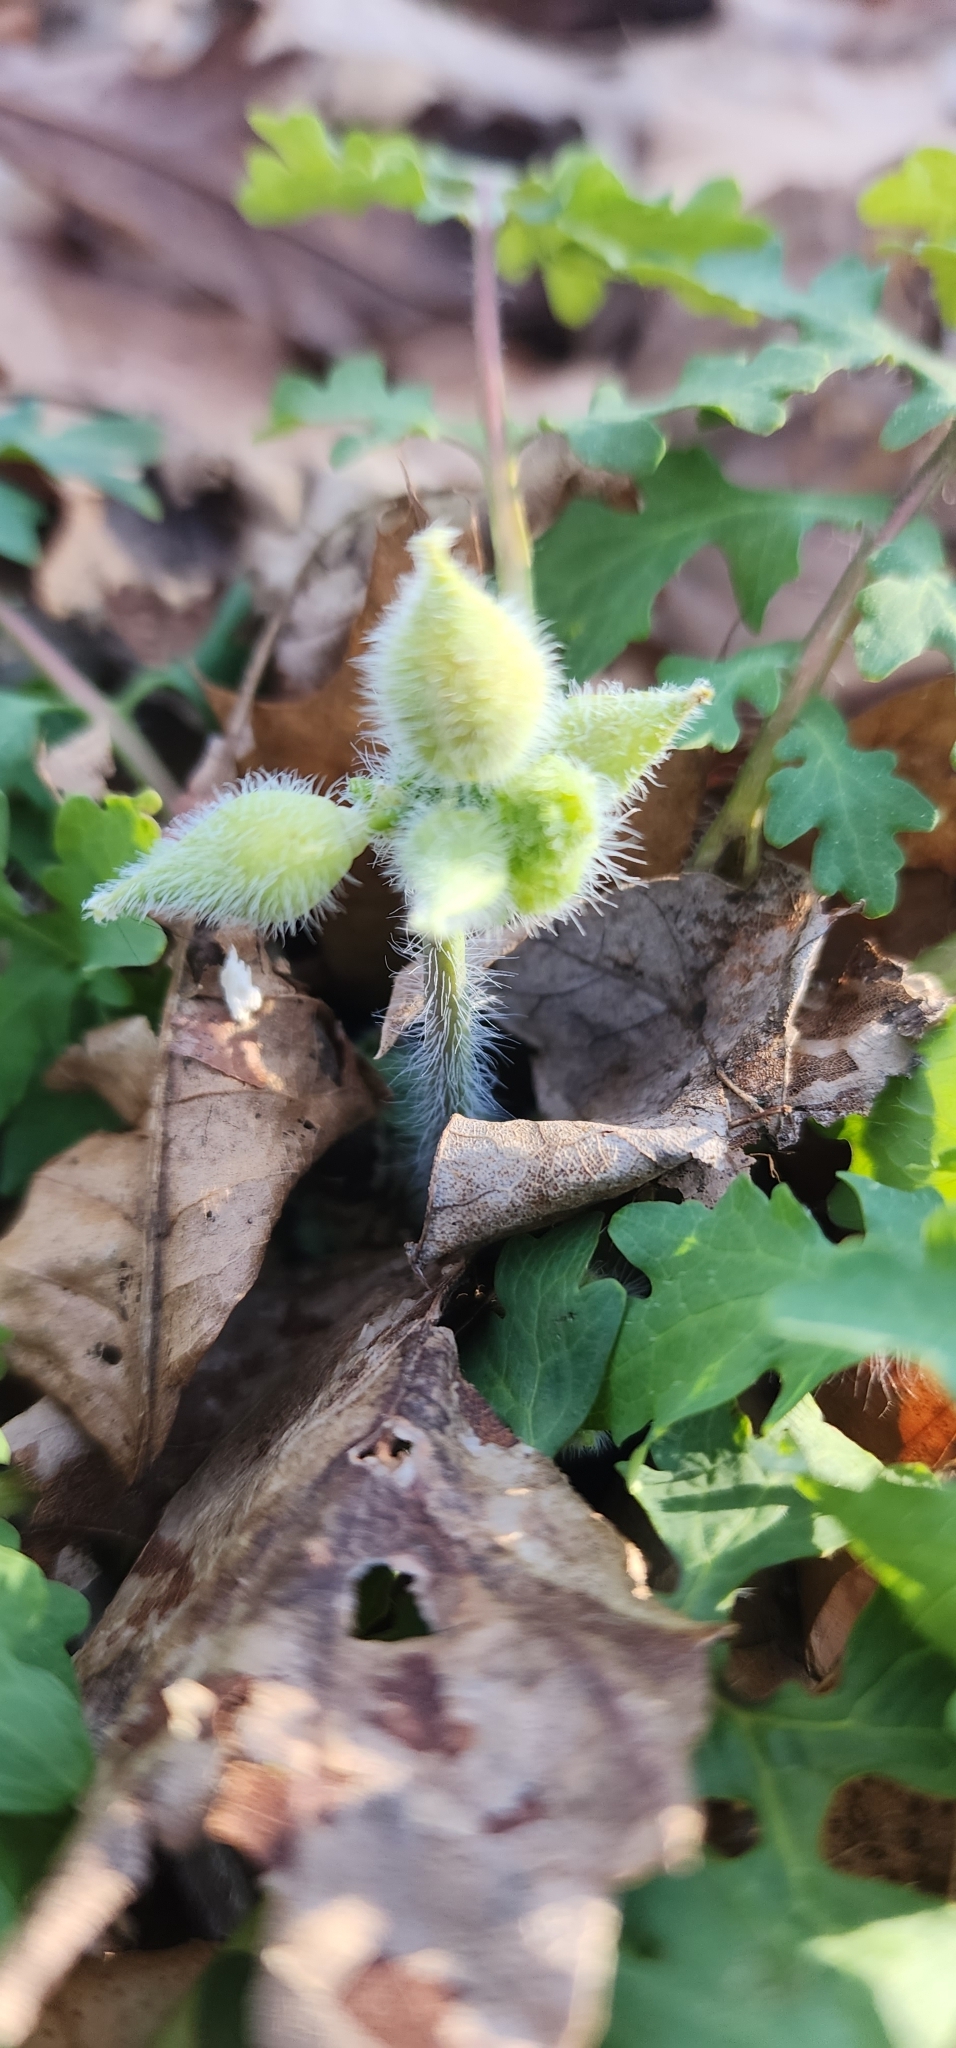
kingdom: Plantae
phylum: Tracheophyta
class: Magnoliopsida
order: Ranunculales
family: Papaveraceae
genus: Chelidonium
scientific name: Chelidonium majus
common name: Greater celandine
